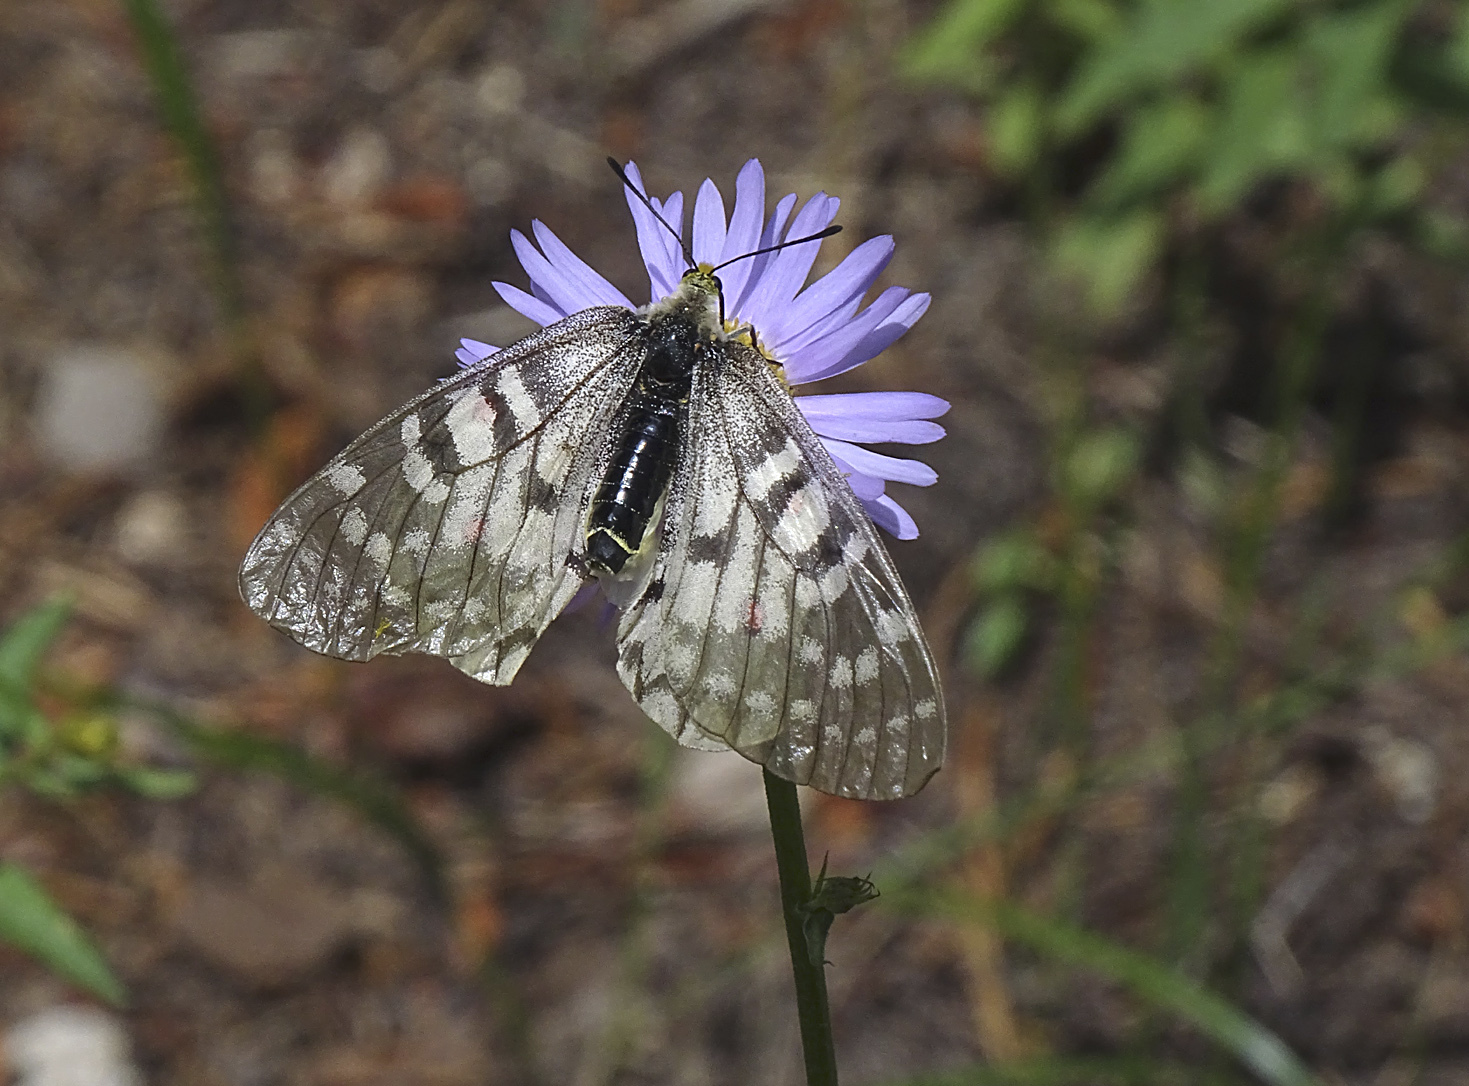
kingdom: Animalia
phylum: Arthropoda
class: Insecta
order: Lepidoptera
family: Papilionidae
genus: Parnassius
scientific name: Parnassius clodius
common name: American apollo
